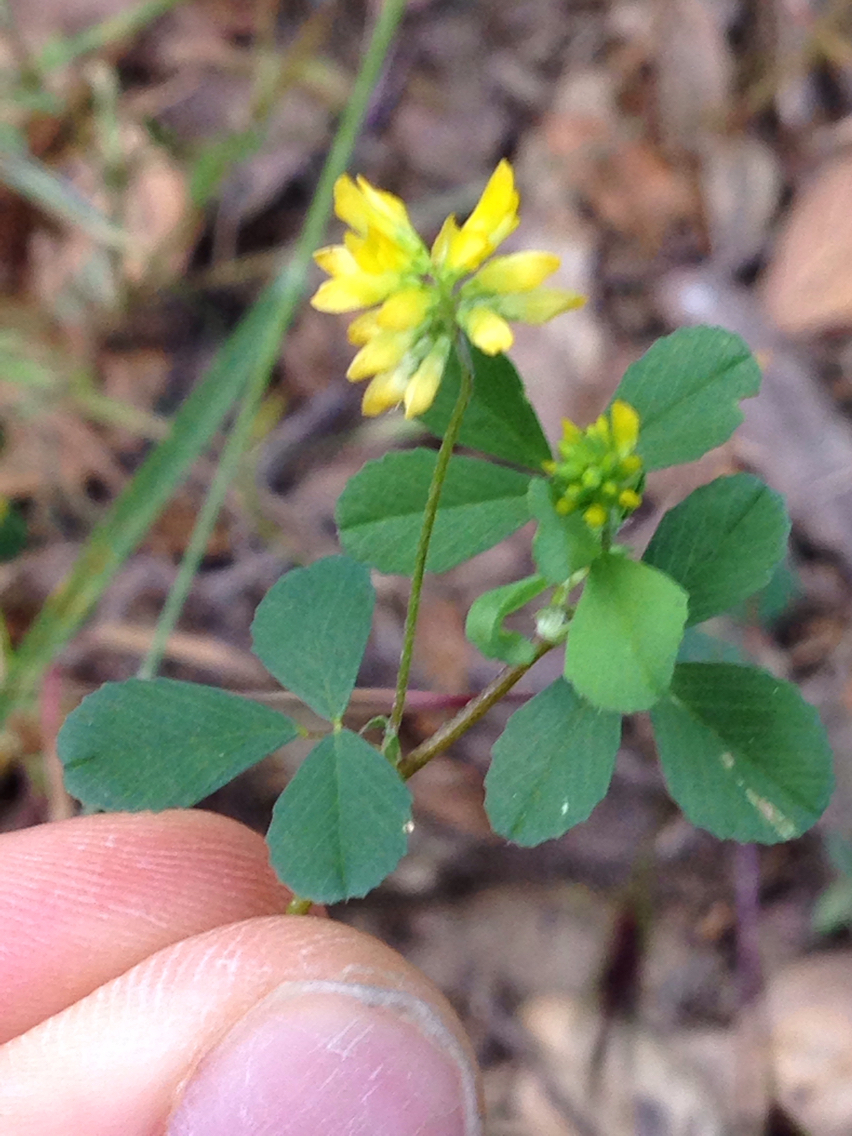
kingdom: Plantae
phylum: Tracheophyta
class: Magnoliopsida
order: Fabales
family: Fabaceae
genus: Trifolium
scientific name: Trifolium dubium
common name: Suckling clover
